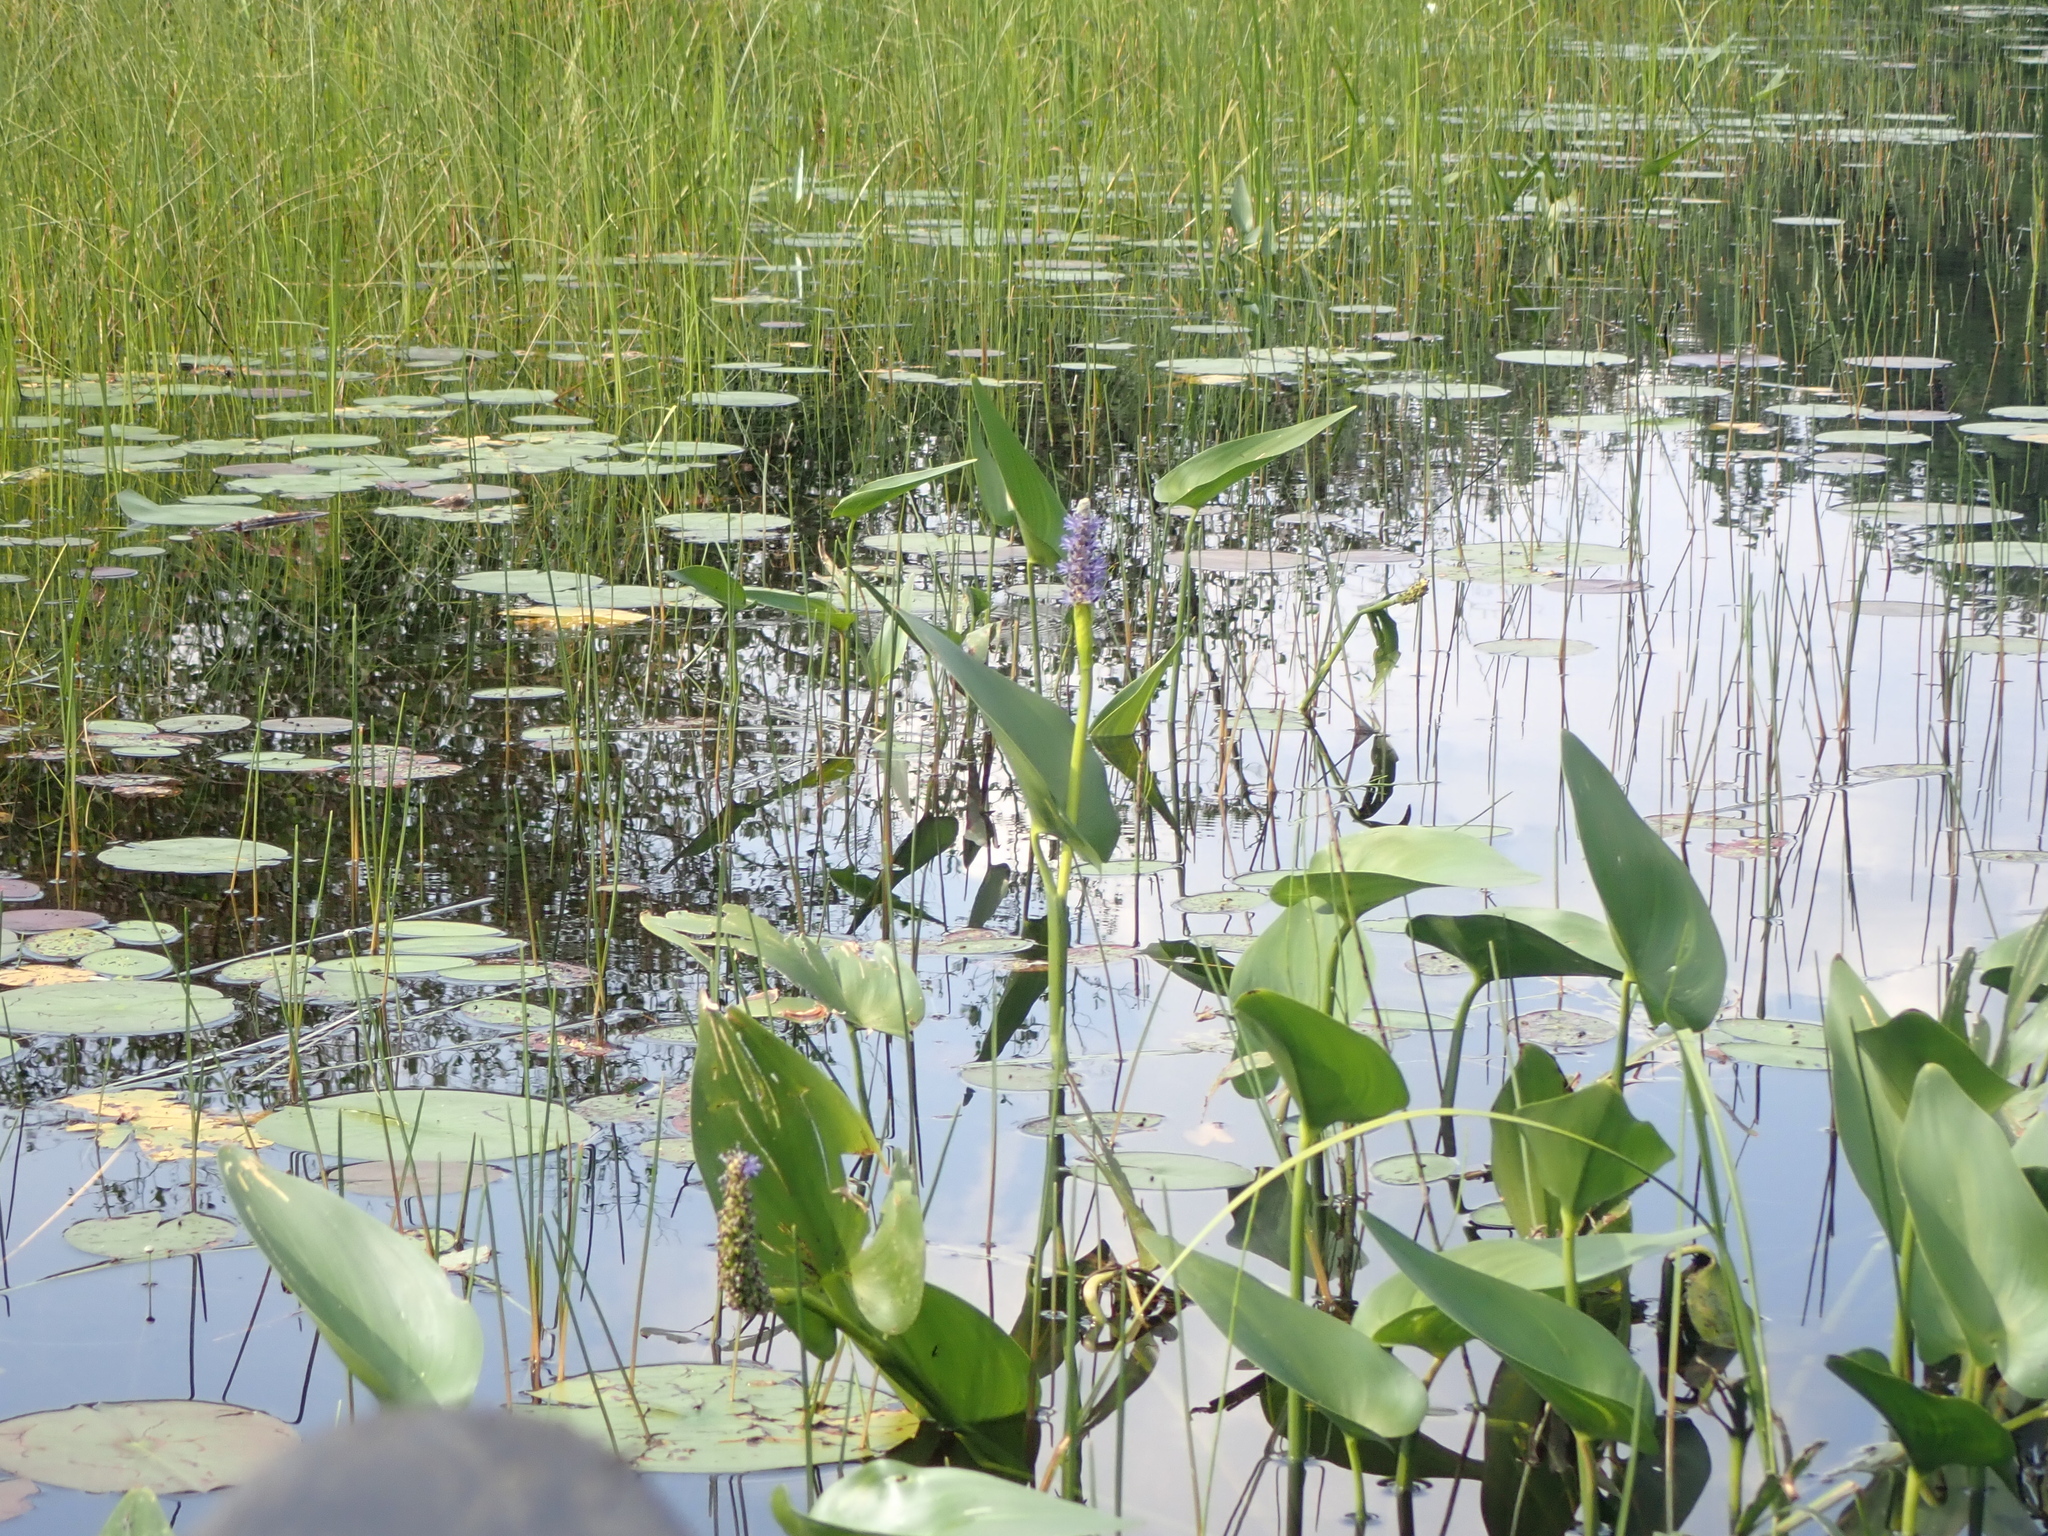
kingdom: Plantae
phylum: Tracheophyta
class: Liliopsida
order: Commelinales
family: Pontederiaceae
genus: Pontederia
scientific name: Pontederia cordata
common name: Pickerelweed
